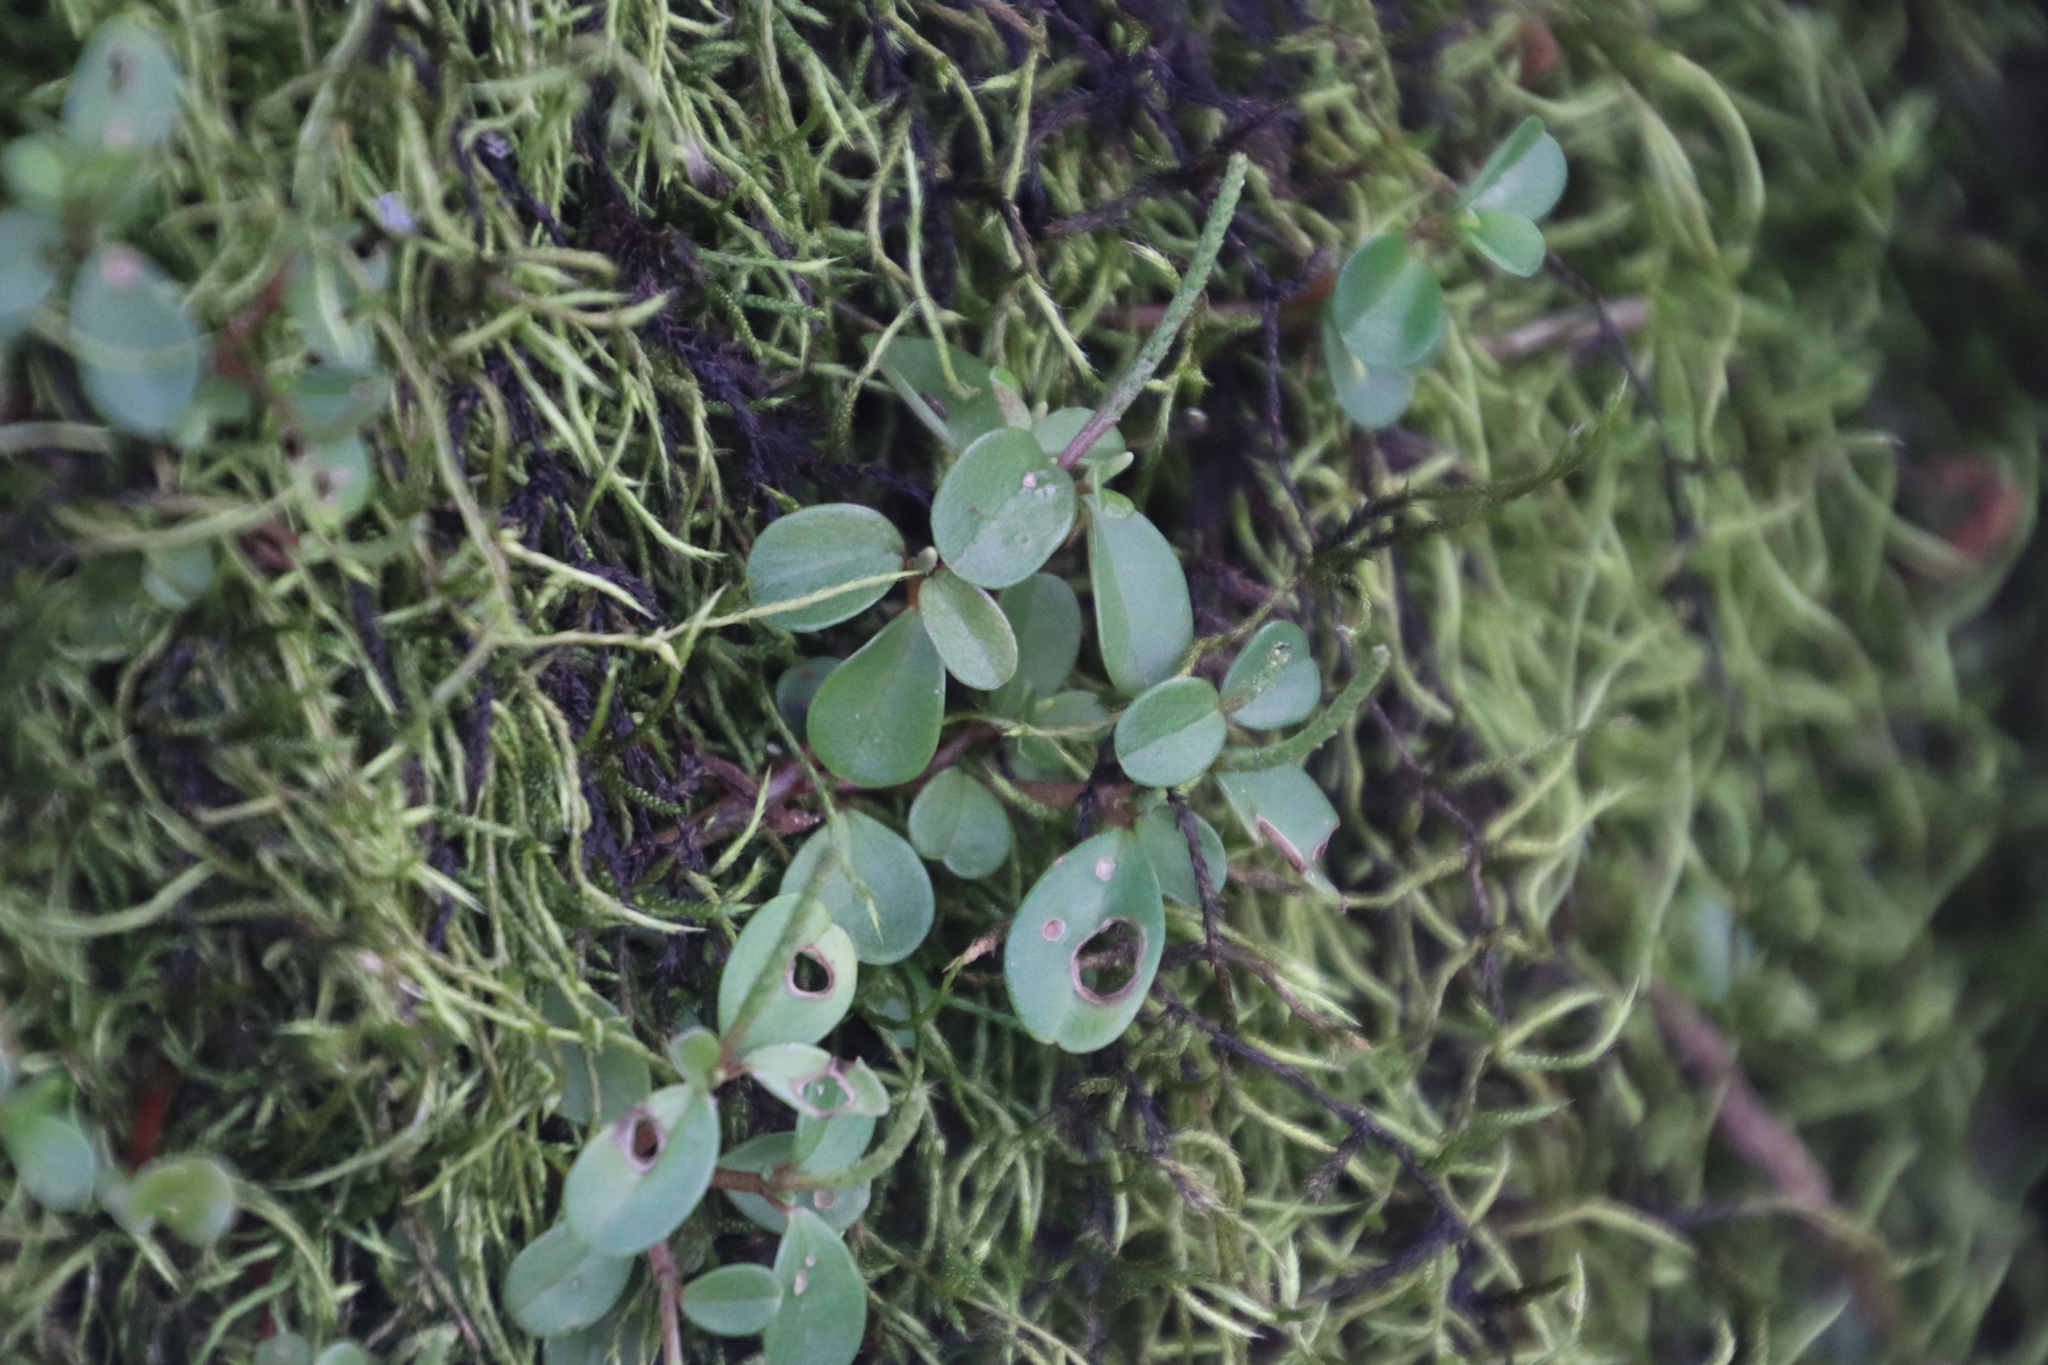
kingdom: Plantae
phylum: Tracheophyta
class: Magnoliopsida
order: Piperales
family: Piperaceae
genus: Peperomia
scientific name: Peperomia retusa
